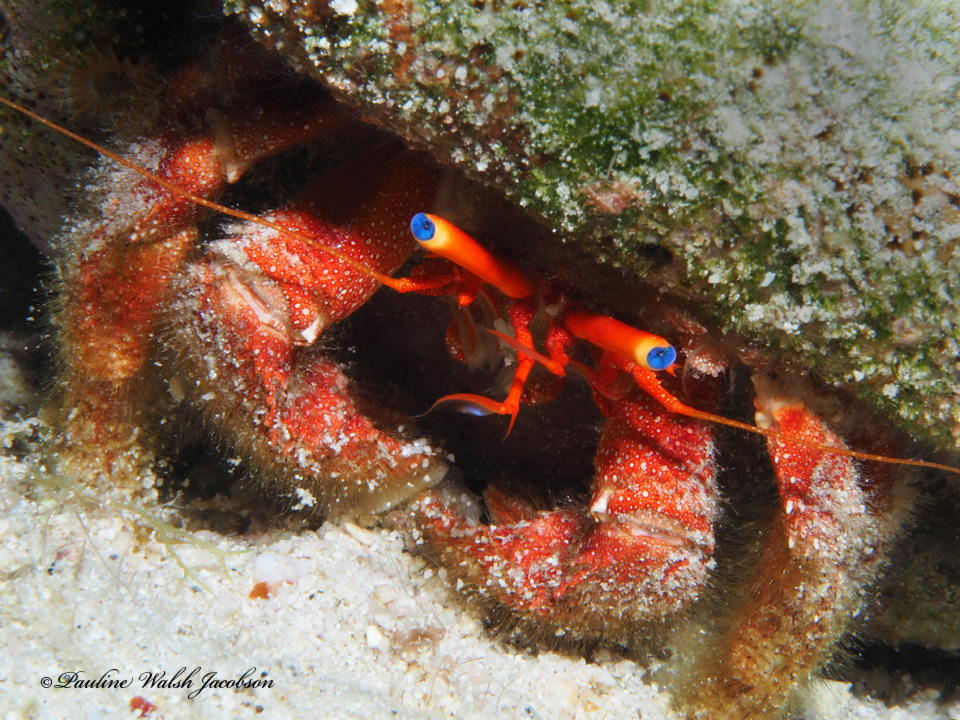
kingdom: Animalia
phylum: Arthropoda
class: Malacostraca
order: Decapoda
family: Diogenidae
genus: Paguristes
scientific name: Paguristes sericeus
